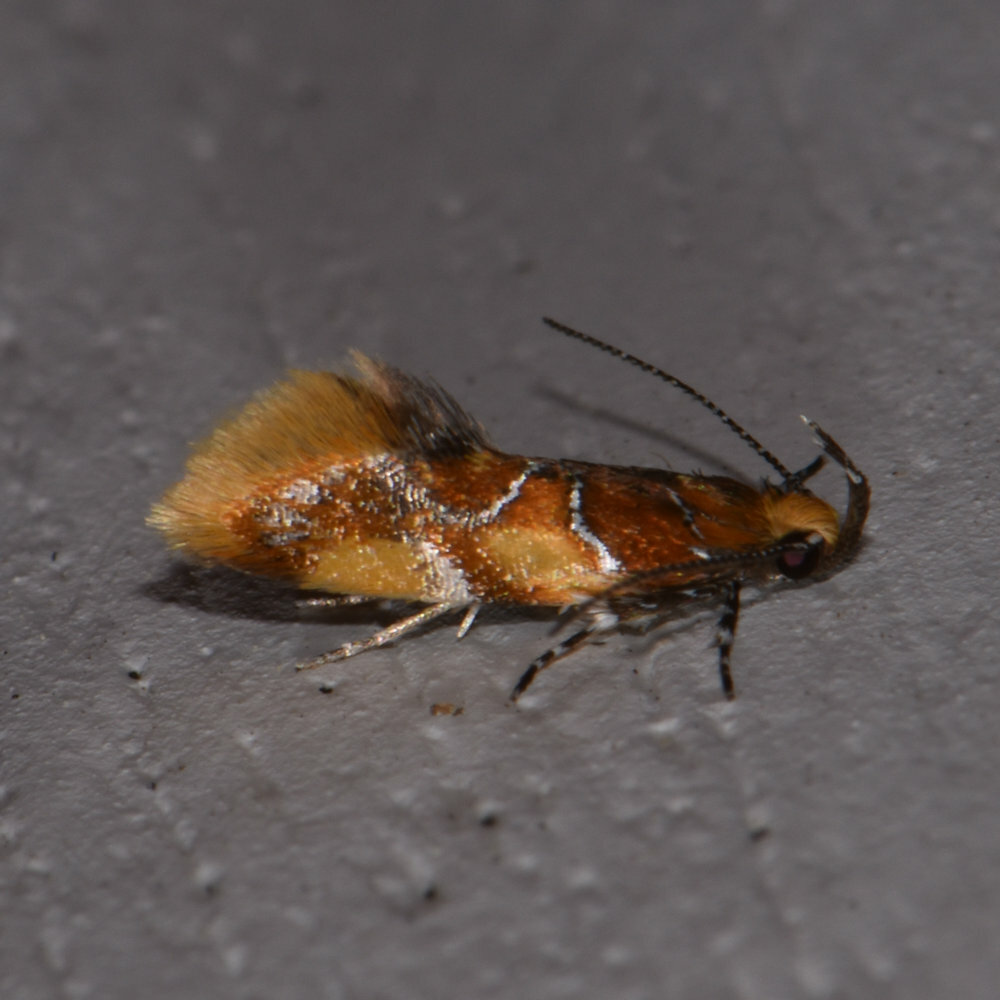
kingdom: Animalia
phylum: Arthropoda
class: Insecta
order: Lepidoptera
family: Oecophoridae
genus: Callima
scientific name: Callima argenticinctella
